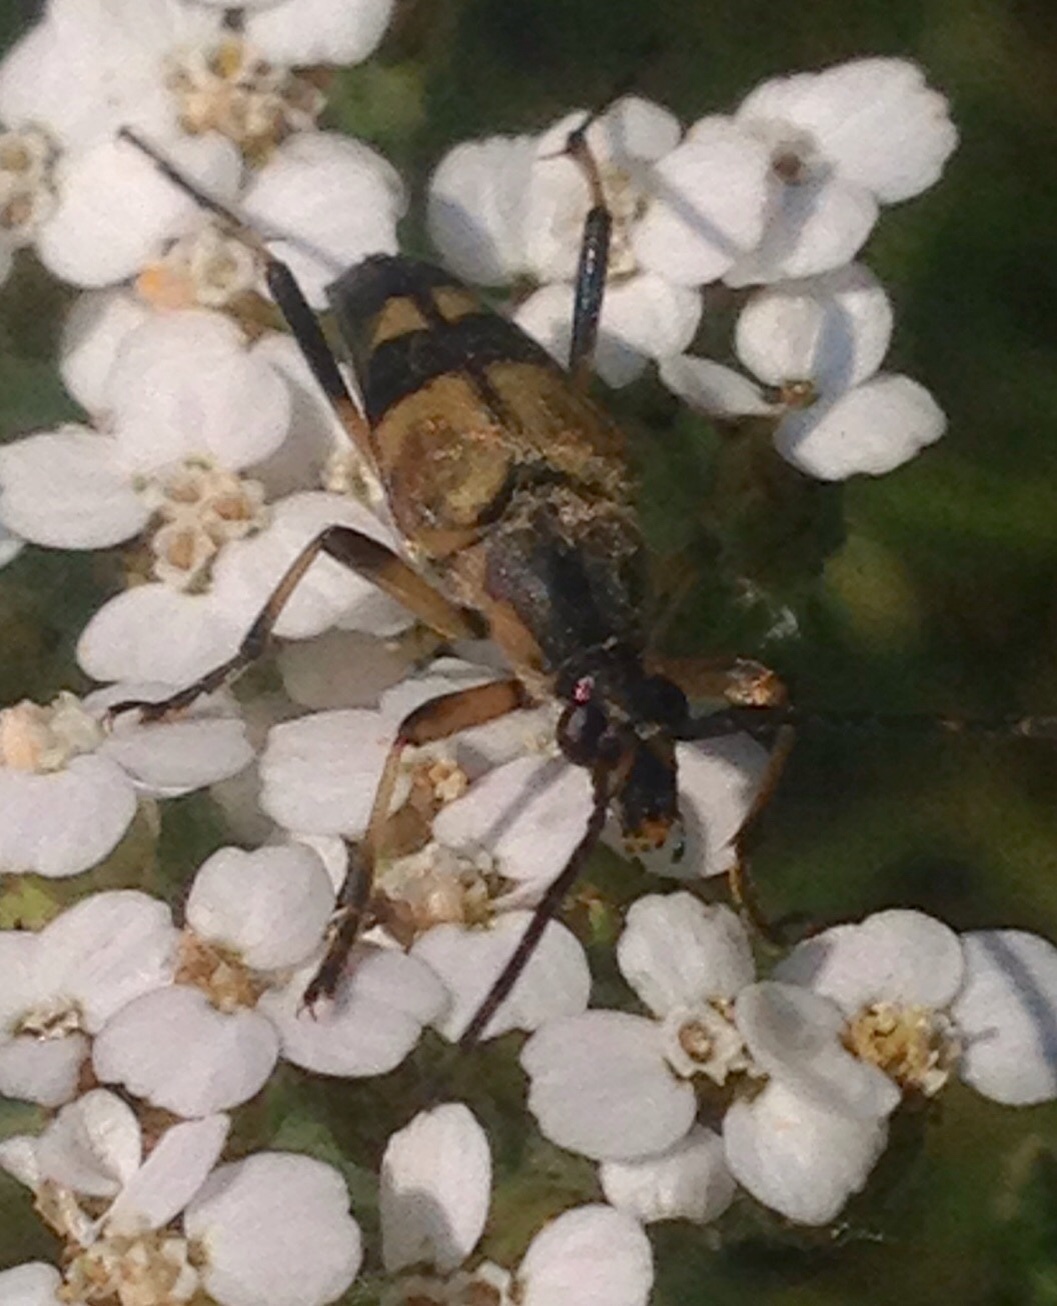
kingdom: Animalia
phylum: Arthropoda
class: Insecta
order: Coleoptera
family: Cerambycidae
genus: Etorofus
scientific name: Etorofus obliteratus
